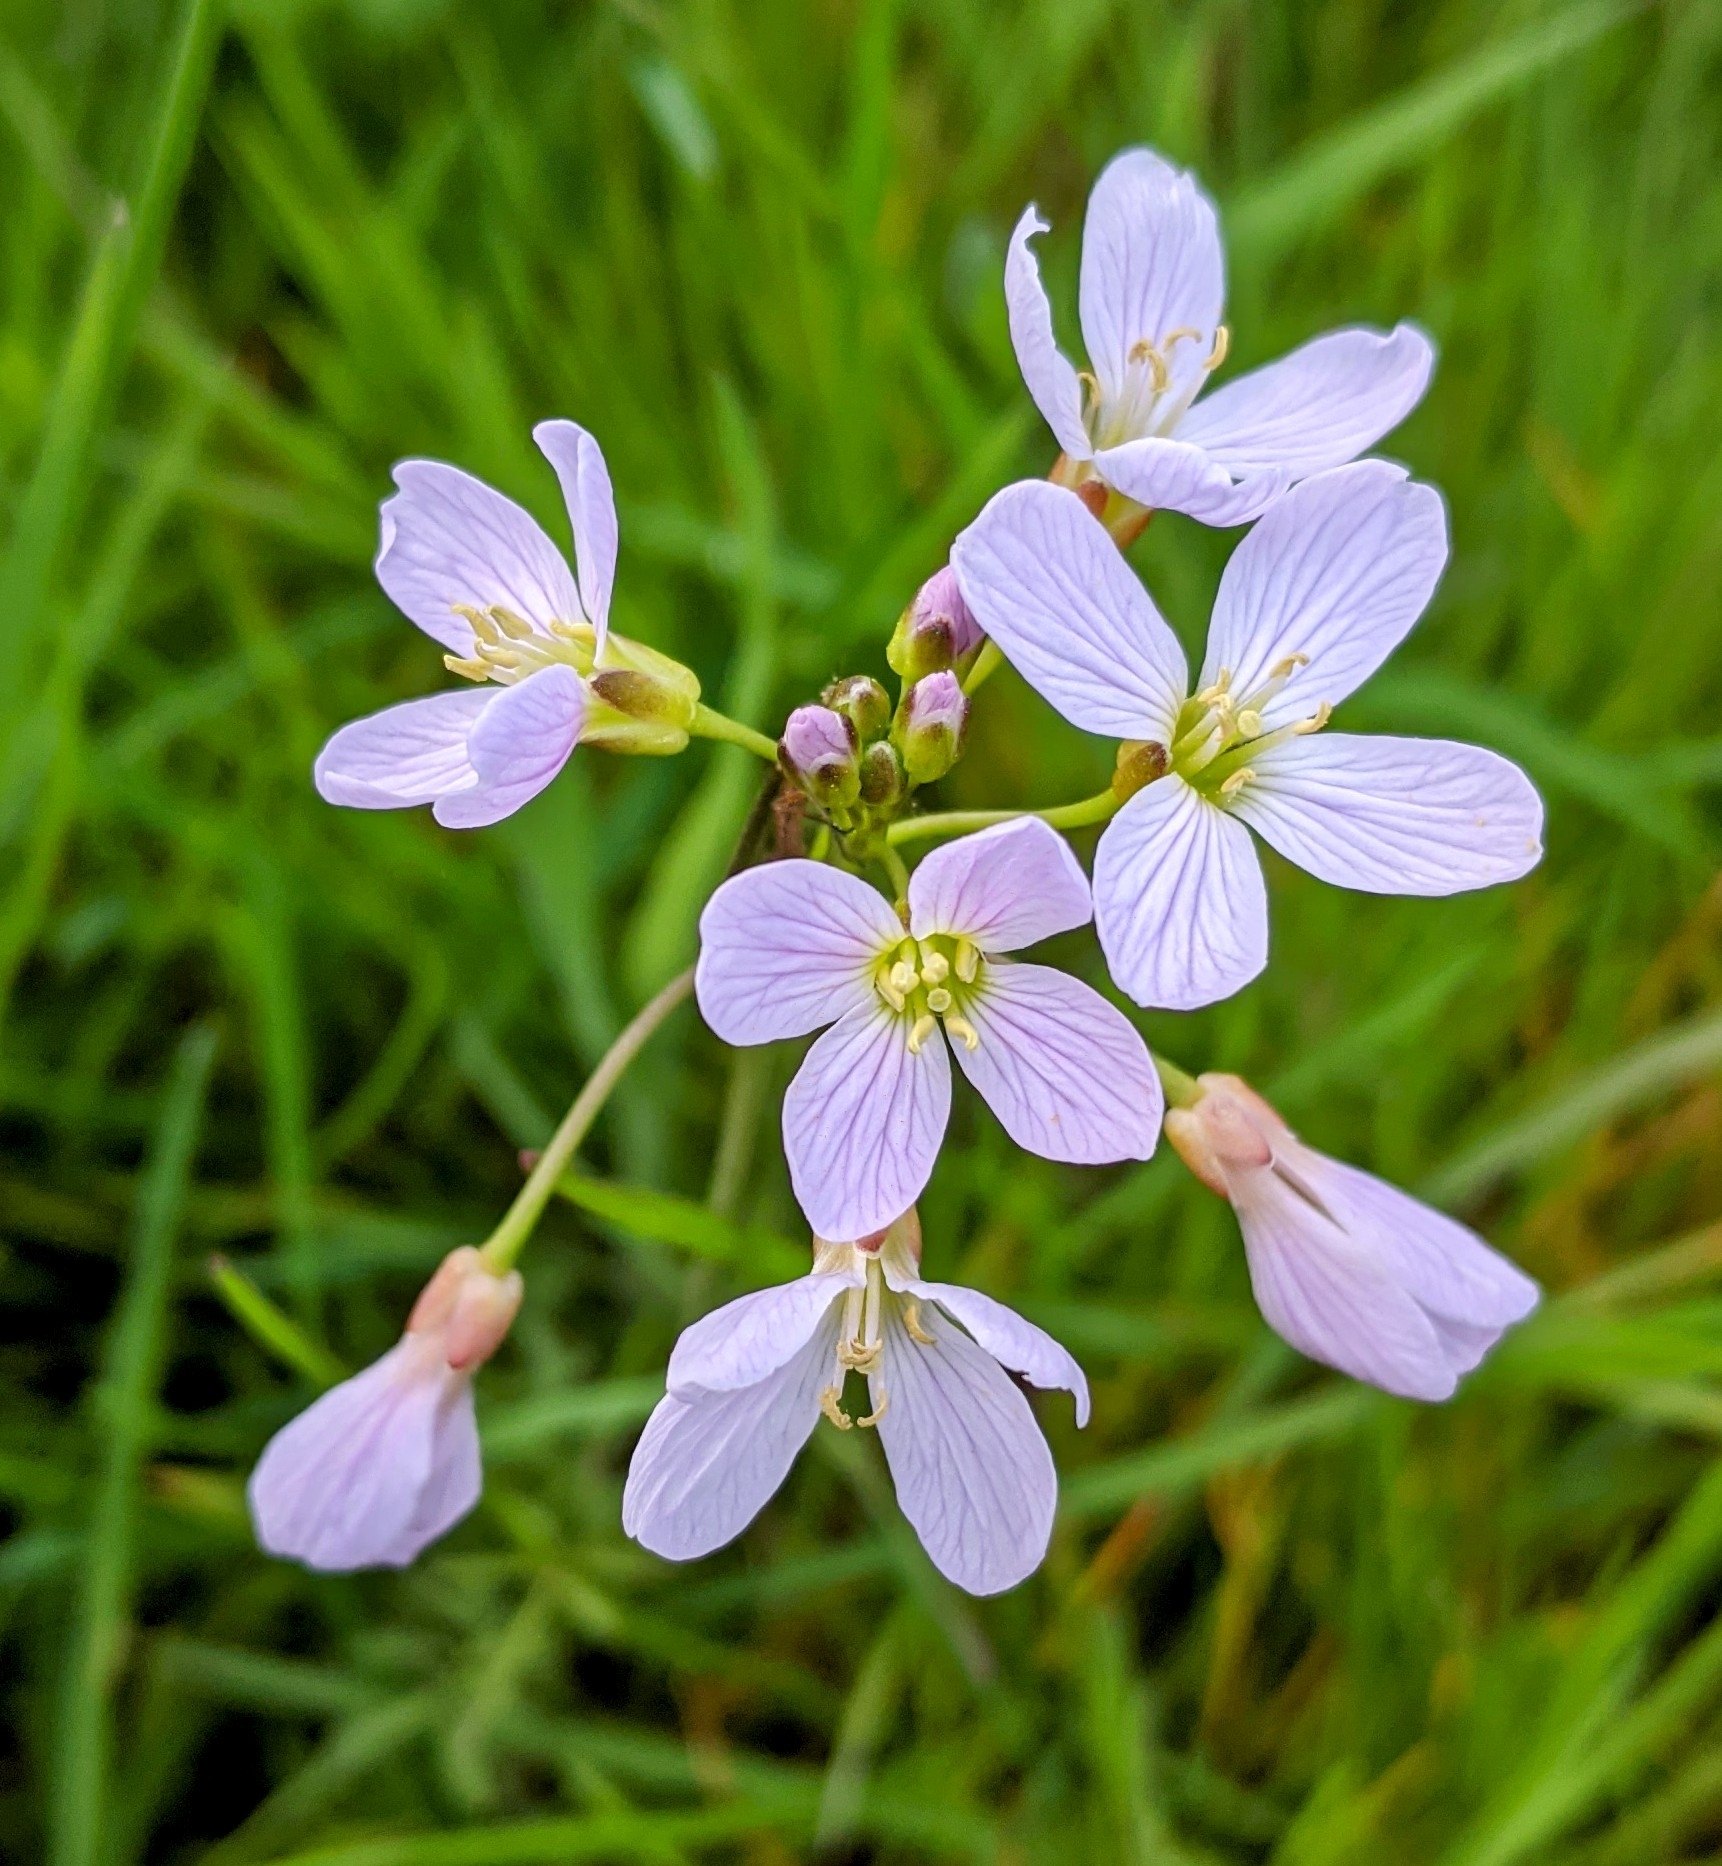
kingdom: Plantae
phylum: Tracheophyta
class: Magnoliopsida
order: Brassicales
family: Brassicaceae
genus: Cardamine
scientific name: Cardamine pratensis
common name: Cuckoo flower
